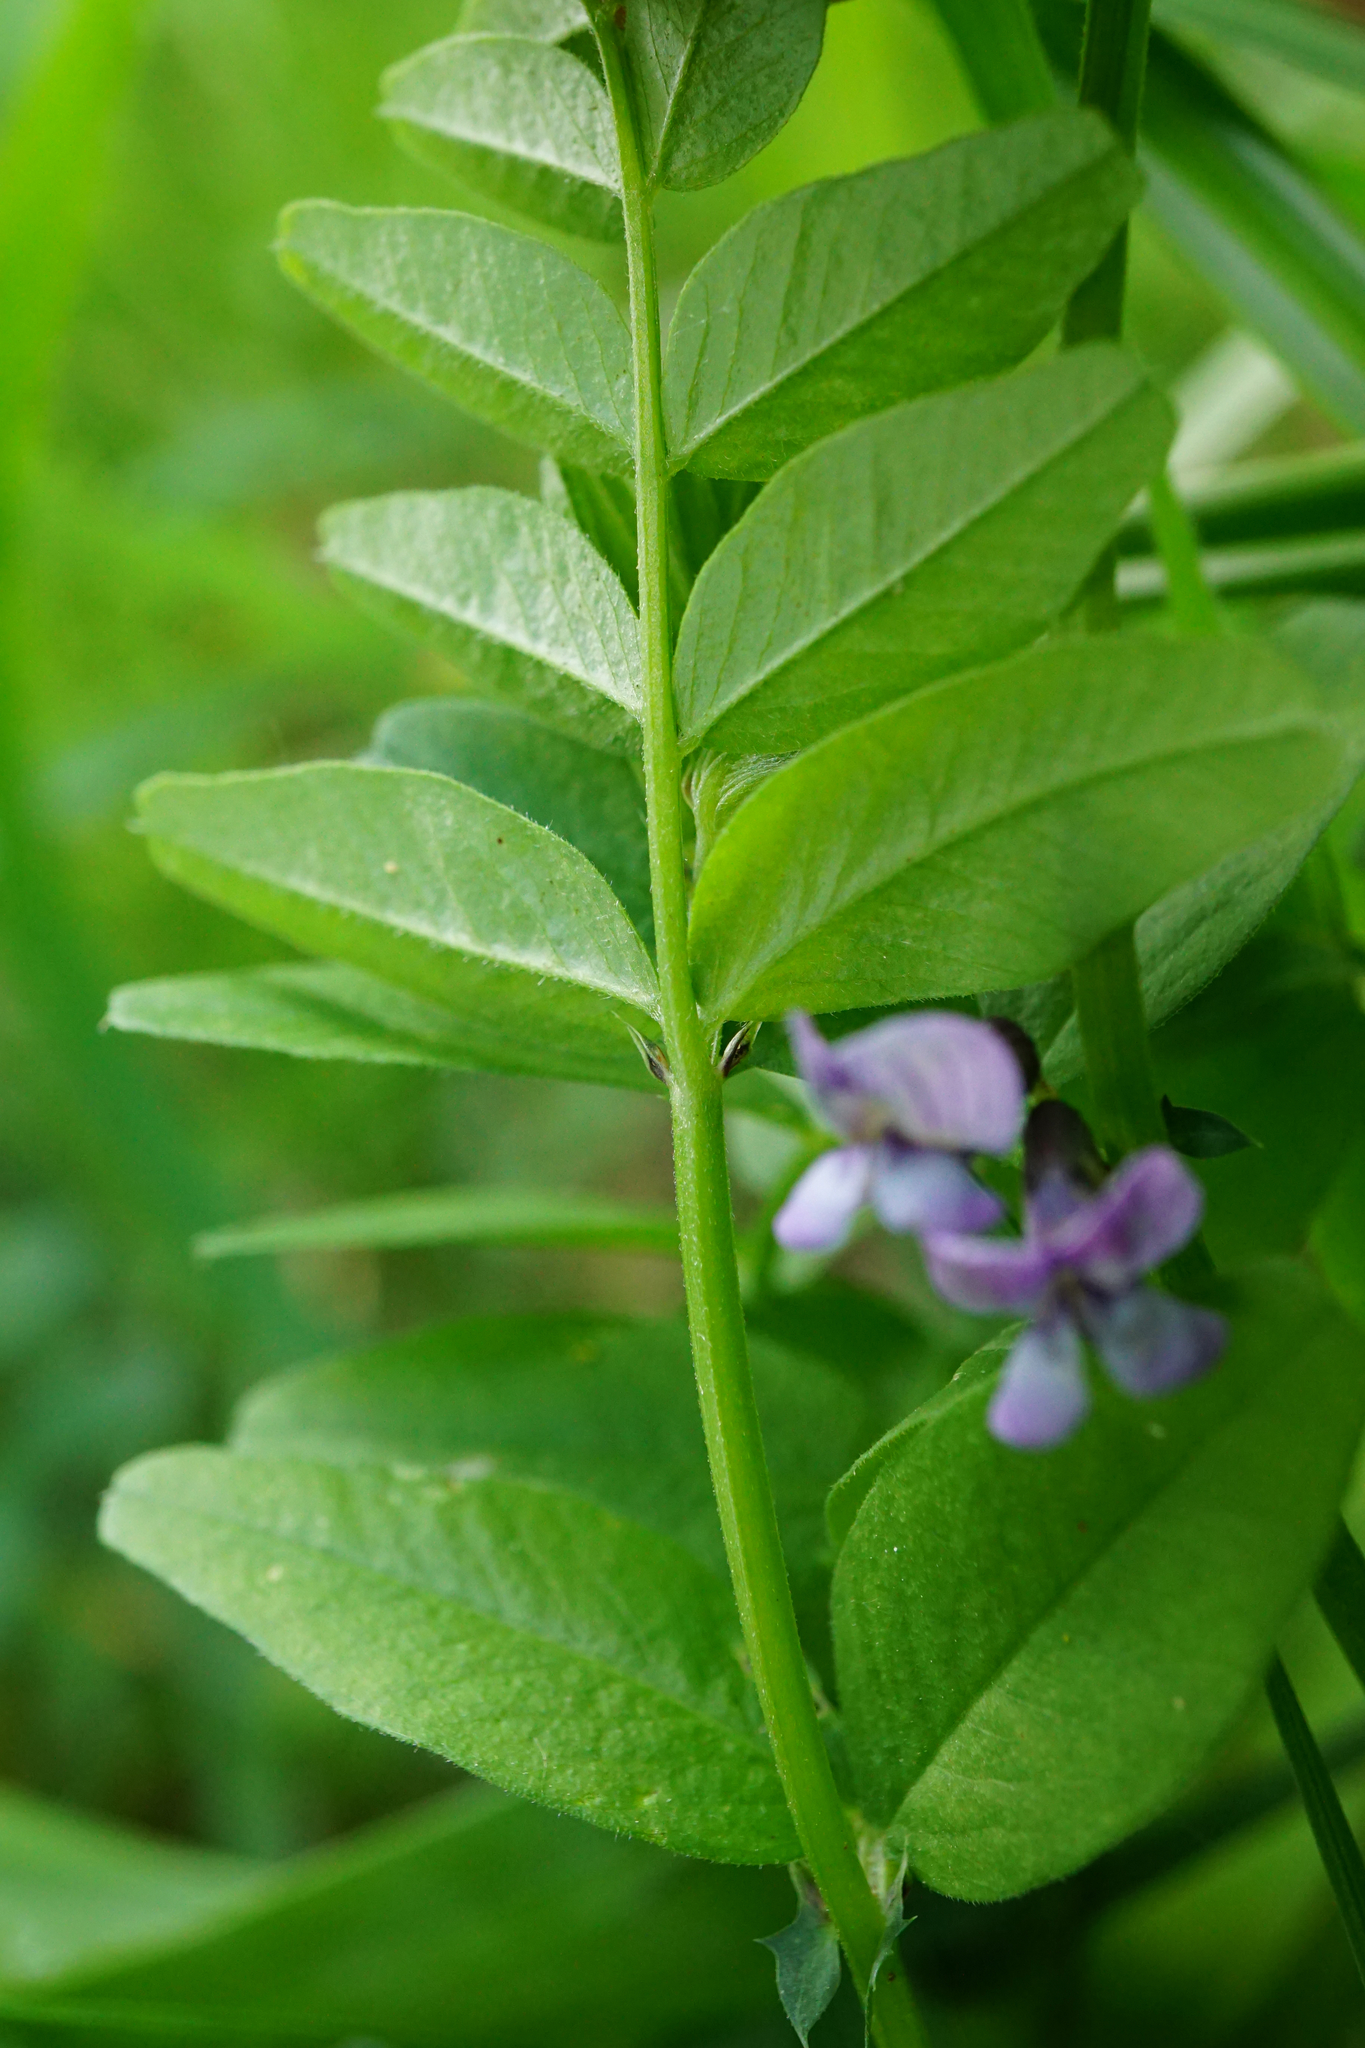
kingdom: Plantae
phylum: Tracheophyta
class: Magnoliopsida
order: Fabales
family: Fabaceae
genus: Vicia
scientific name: Vicia sepium
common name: Bush vetch
